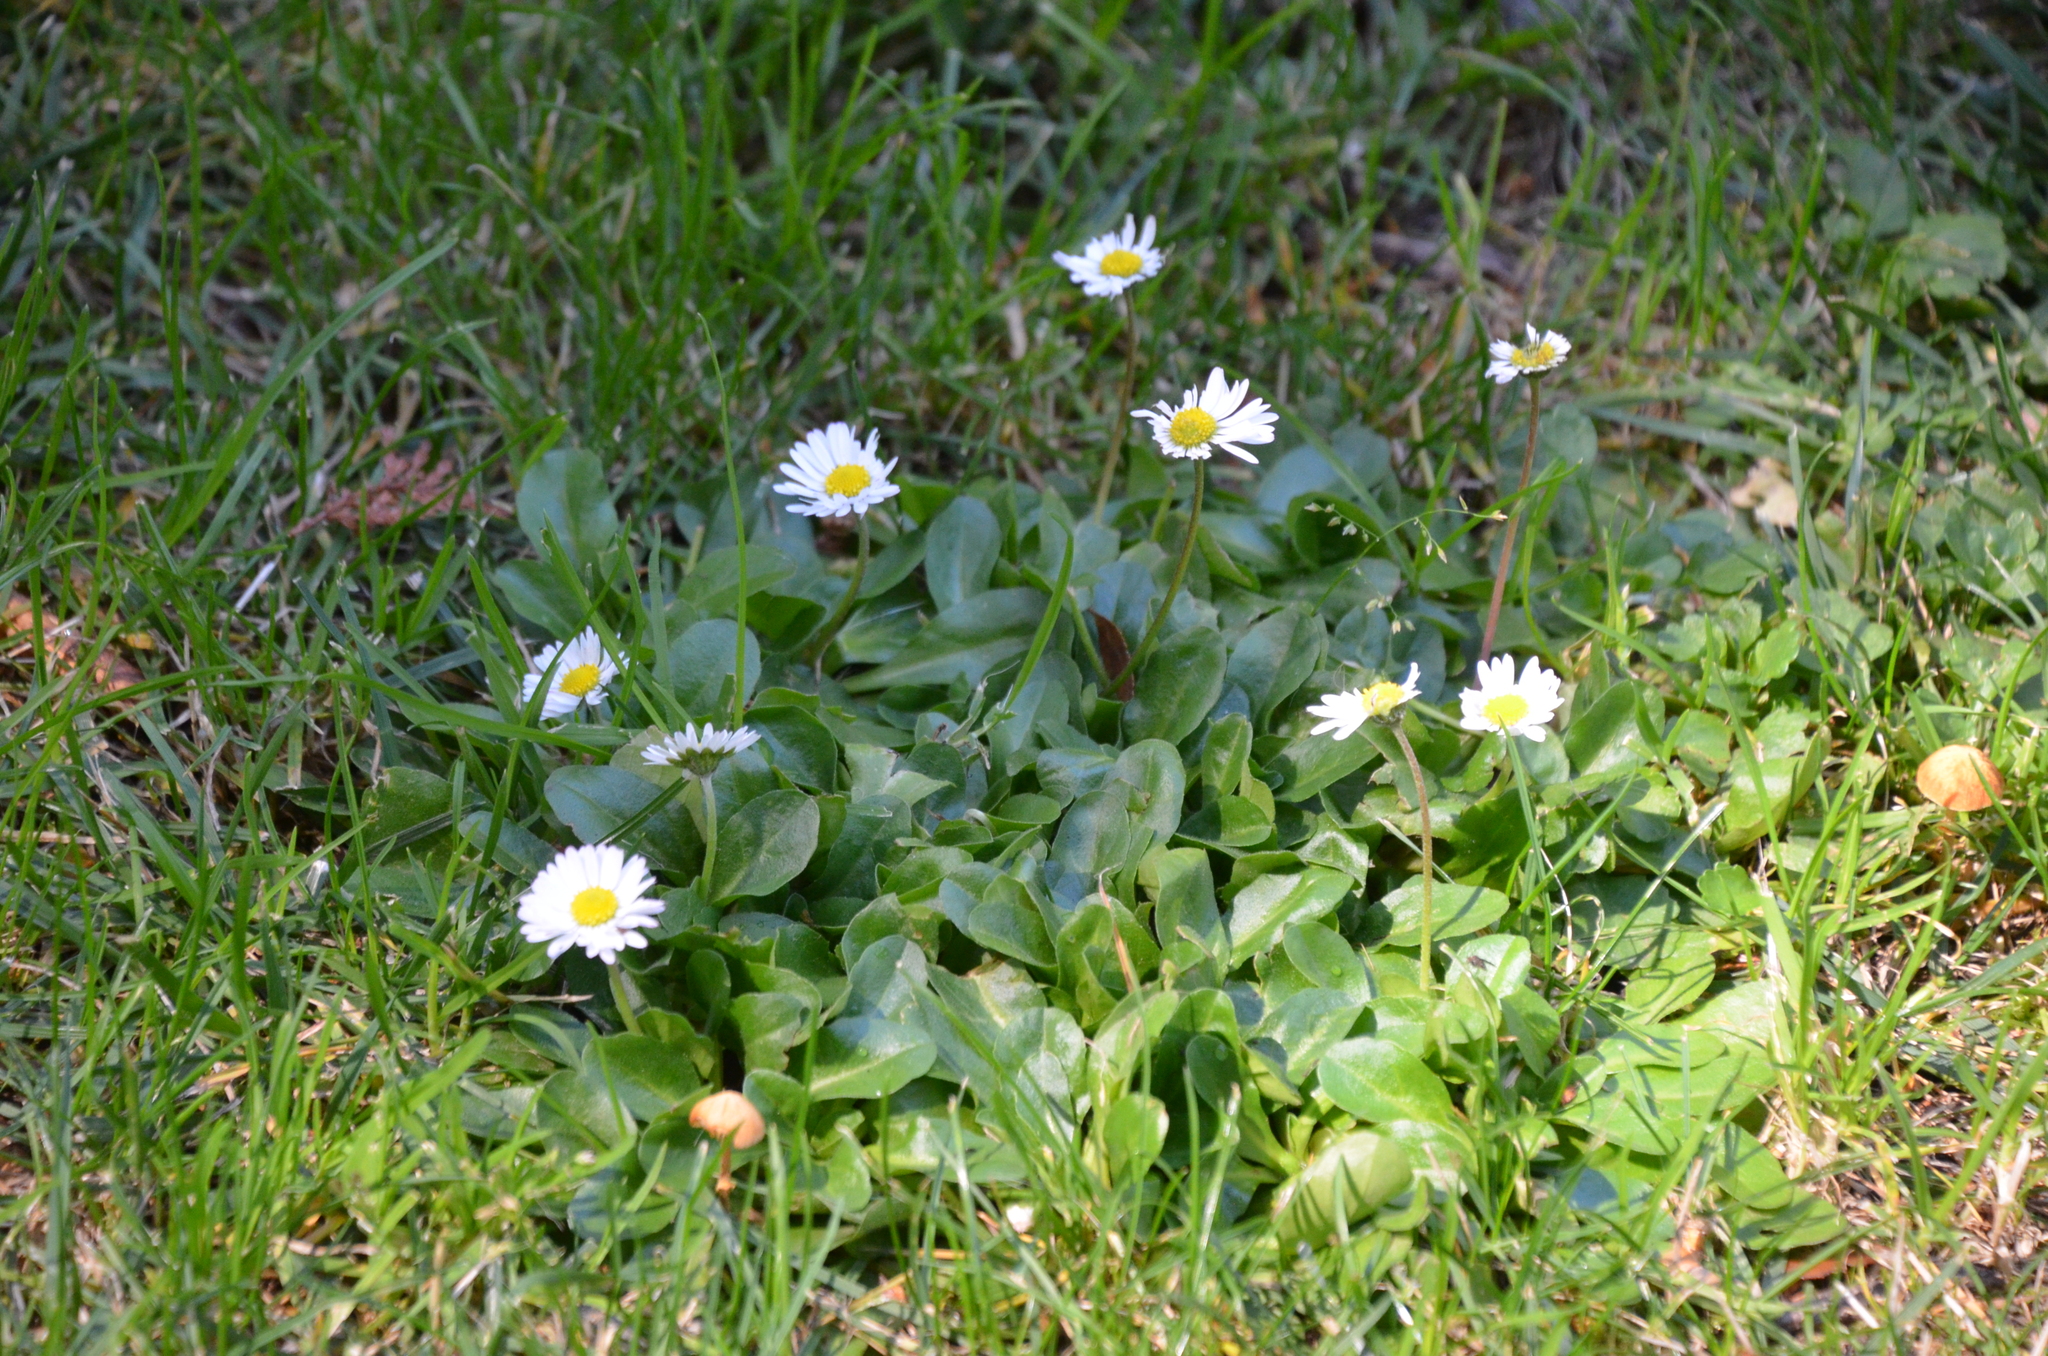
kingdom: Plantae
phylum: Tracheophyta
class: Magnoliopsida
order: Asterales
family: Asteraceae
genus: Bellis
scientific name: Bellis perennis
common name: Lawndaisy
